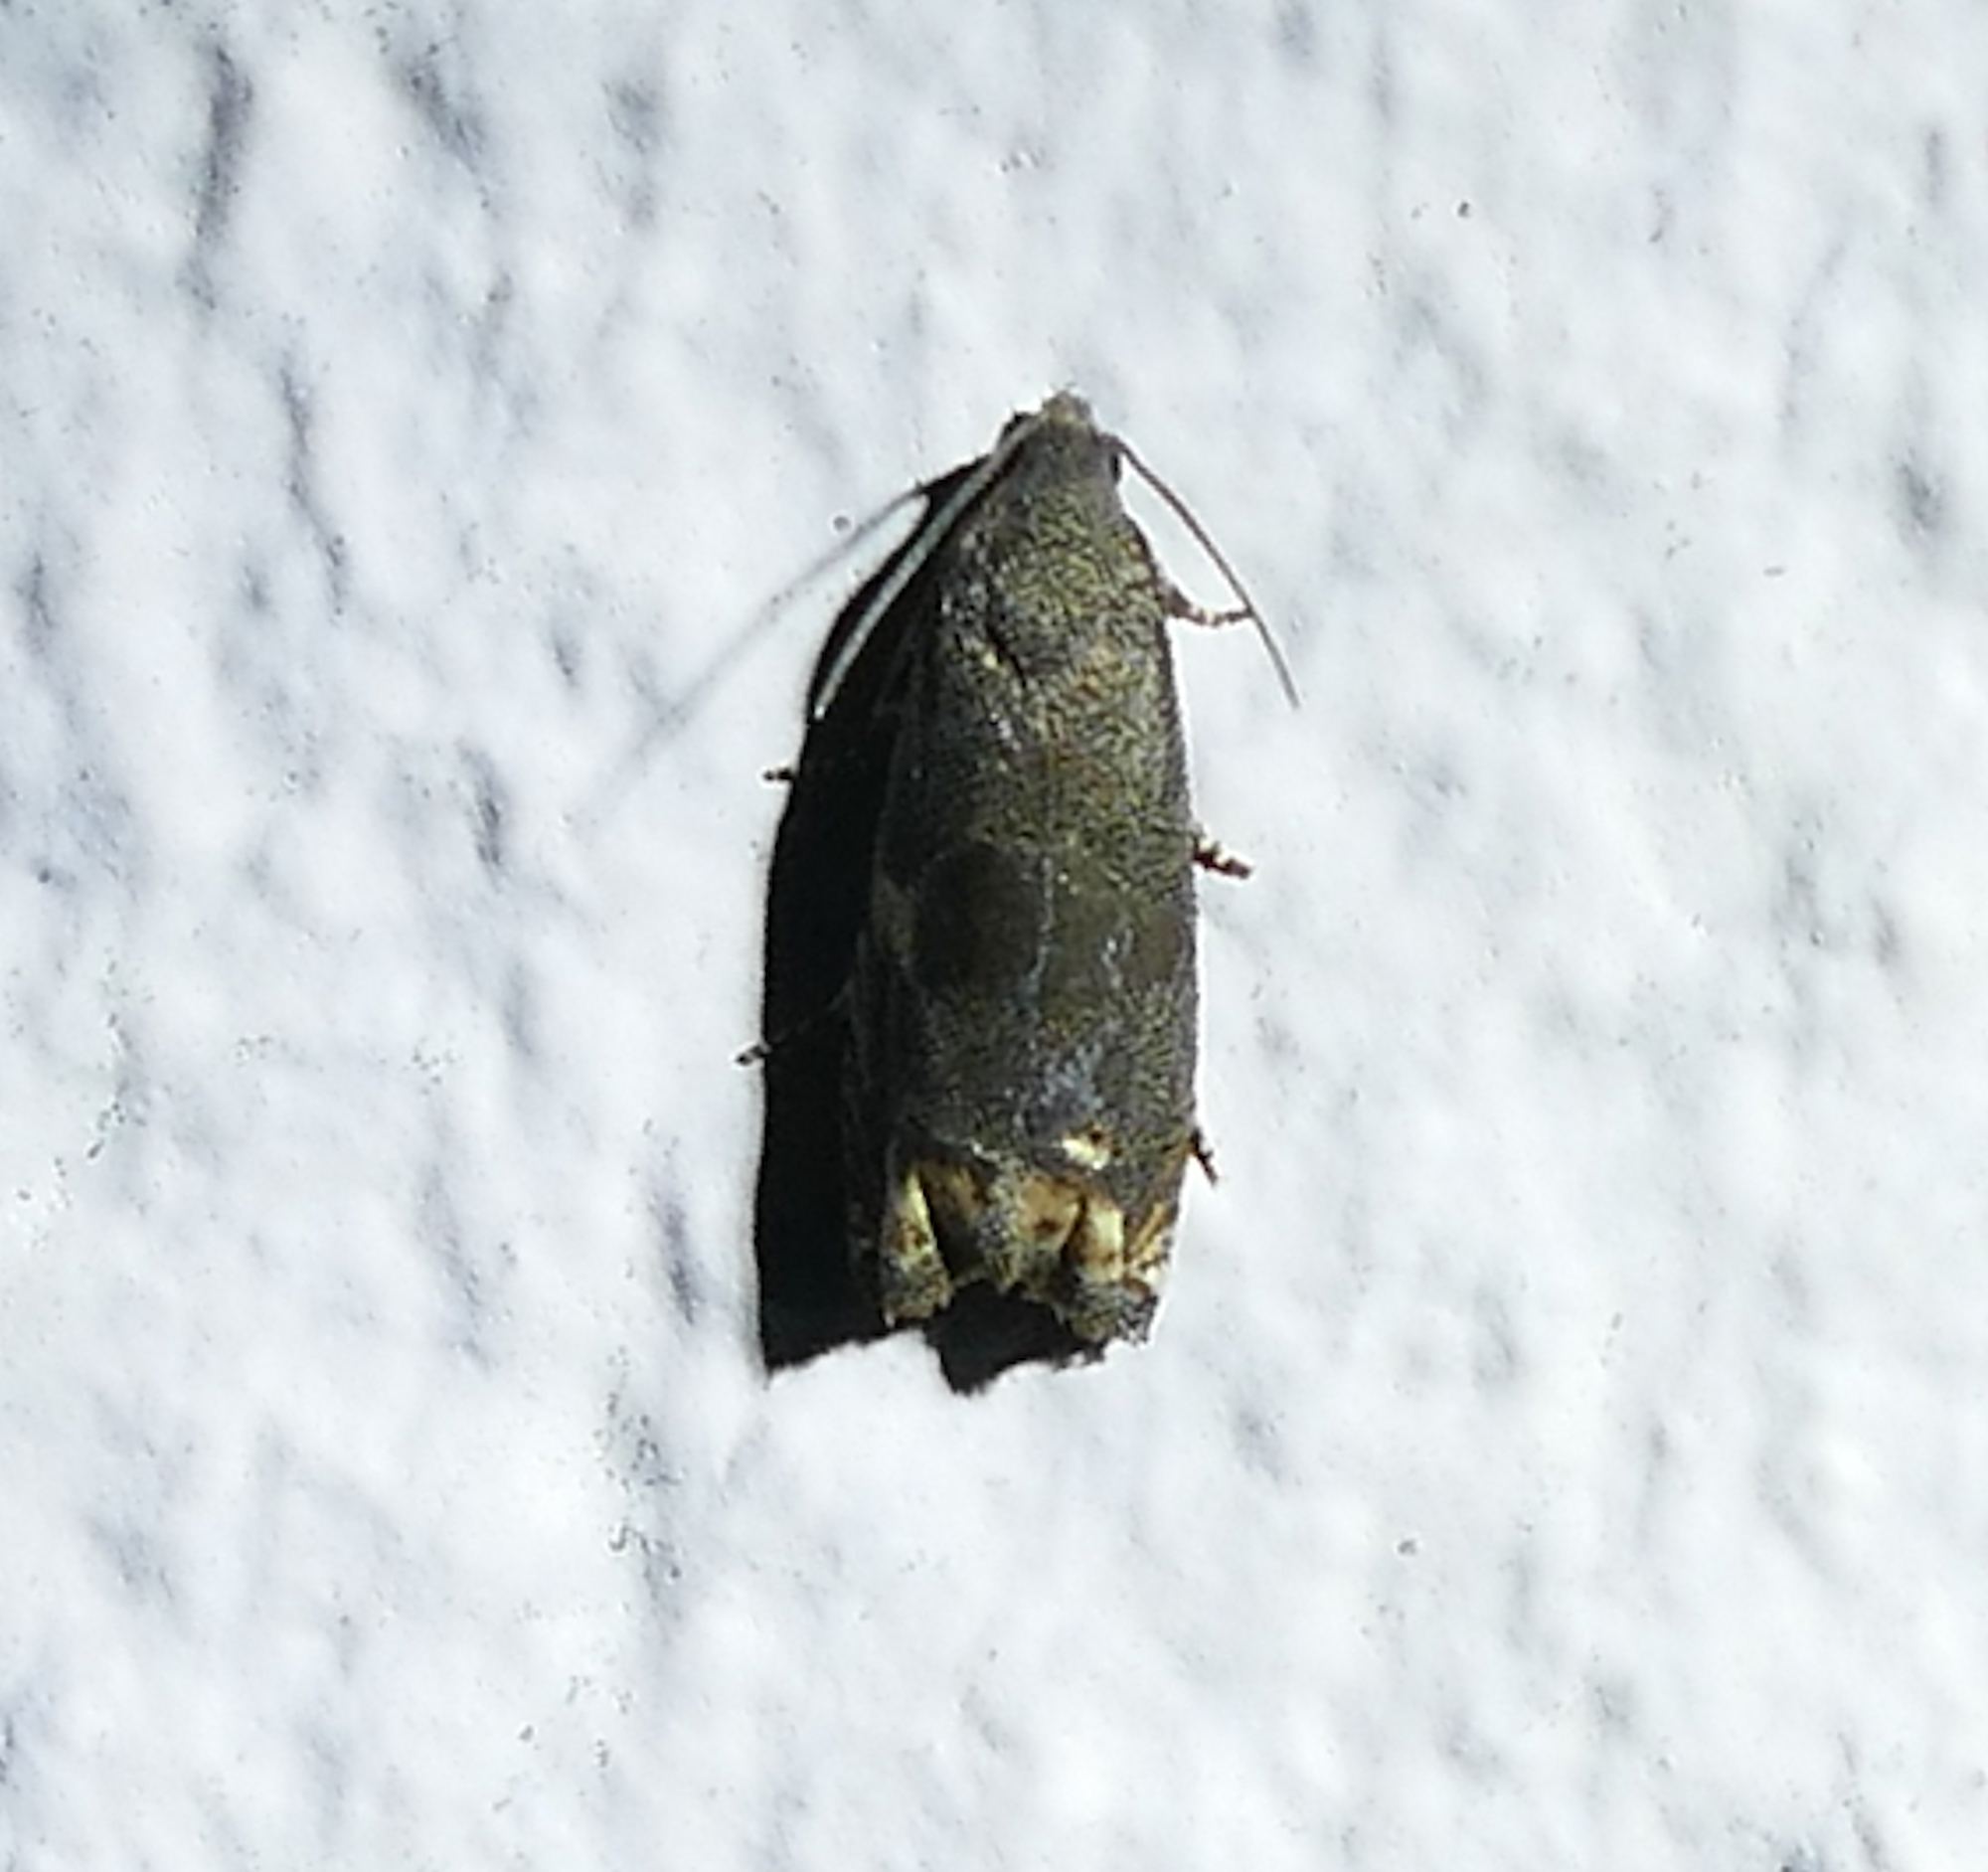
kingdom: Animalia
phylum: Arthropoda
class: Insecta
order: Lepidoptera
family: Tortricidae
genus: Epiblema
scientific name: Epiblema strenuana
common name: Ragweed borer moth
